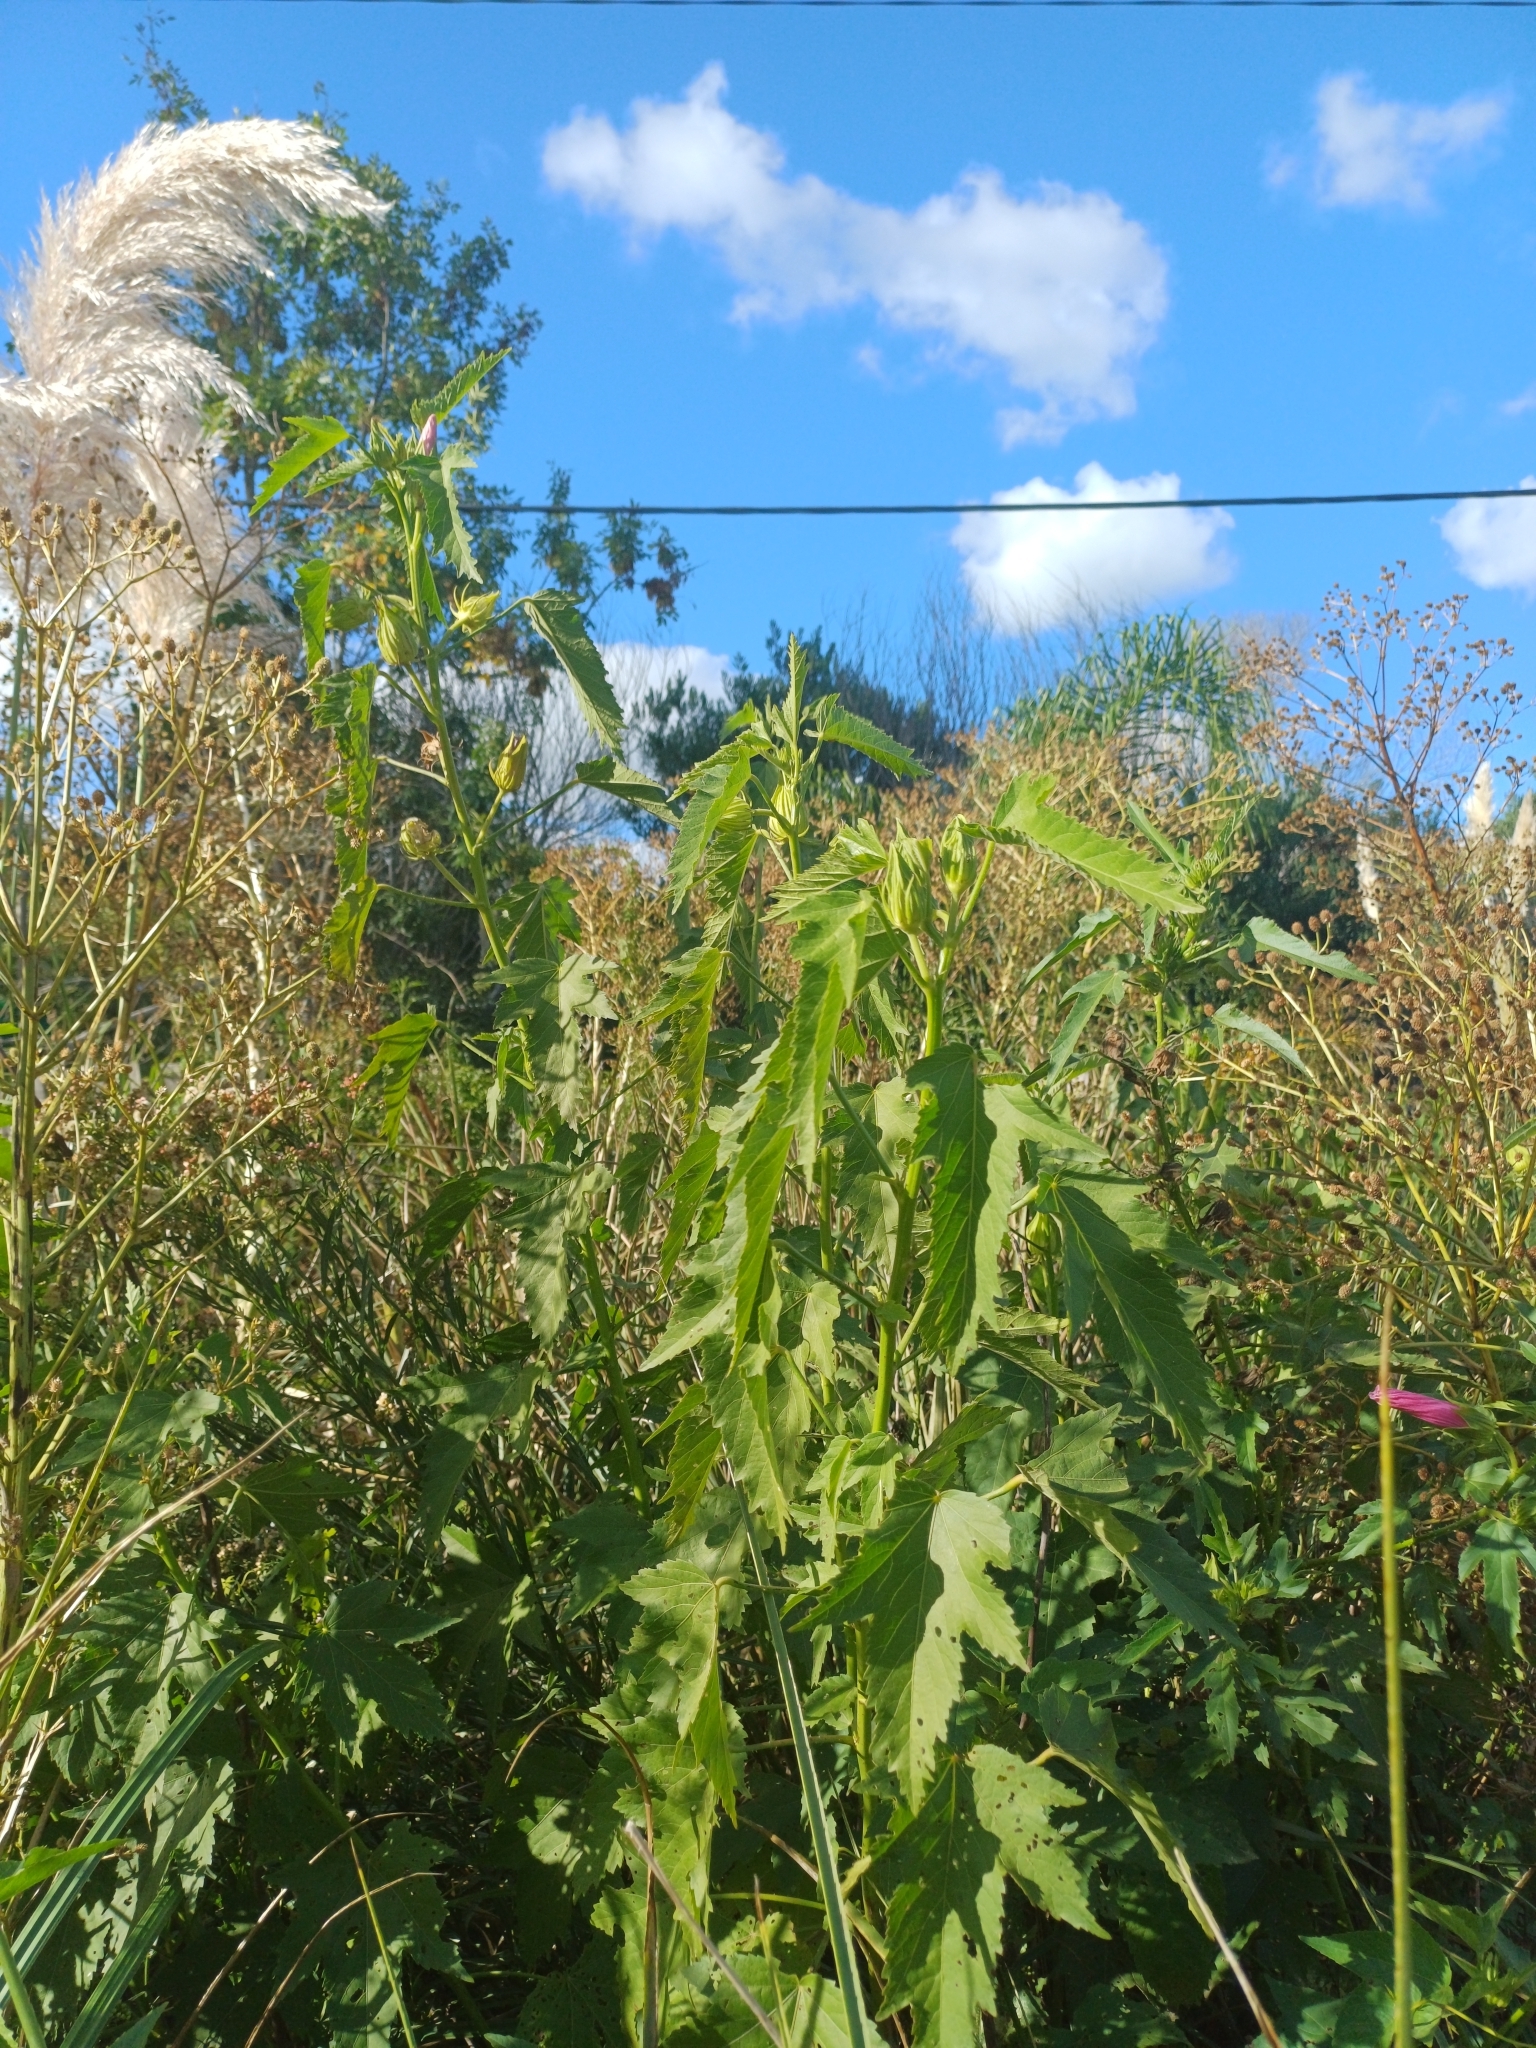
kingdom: Plantae
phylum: Tracheophyta
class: Magnoliopsida
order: Malvales
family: Malvaceae
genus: Hibiscus
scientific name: Hibiscus striatus
